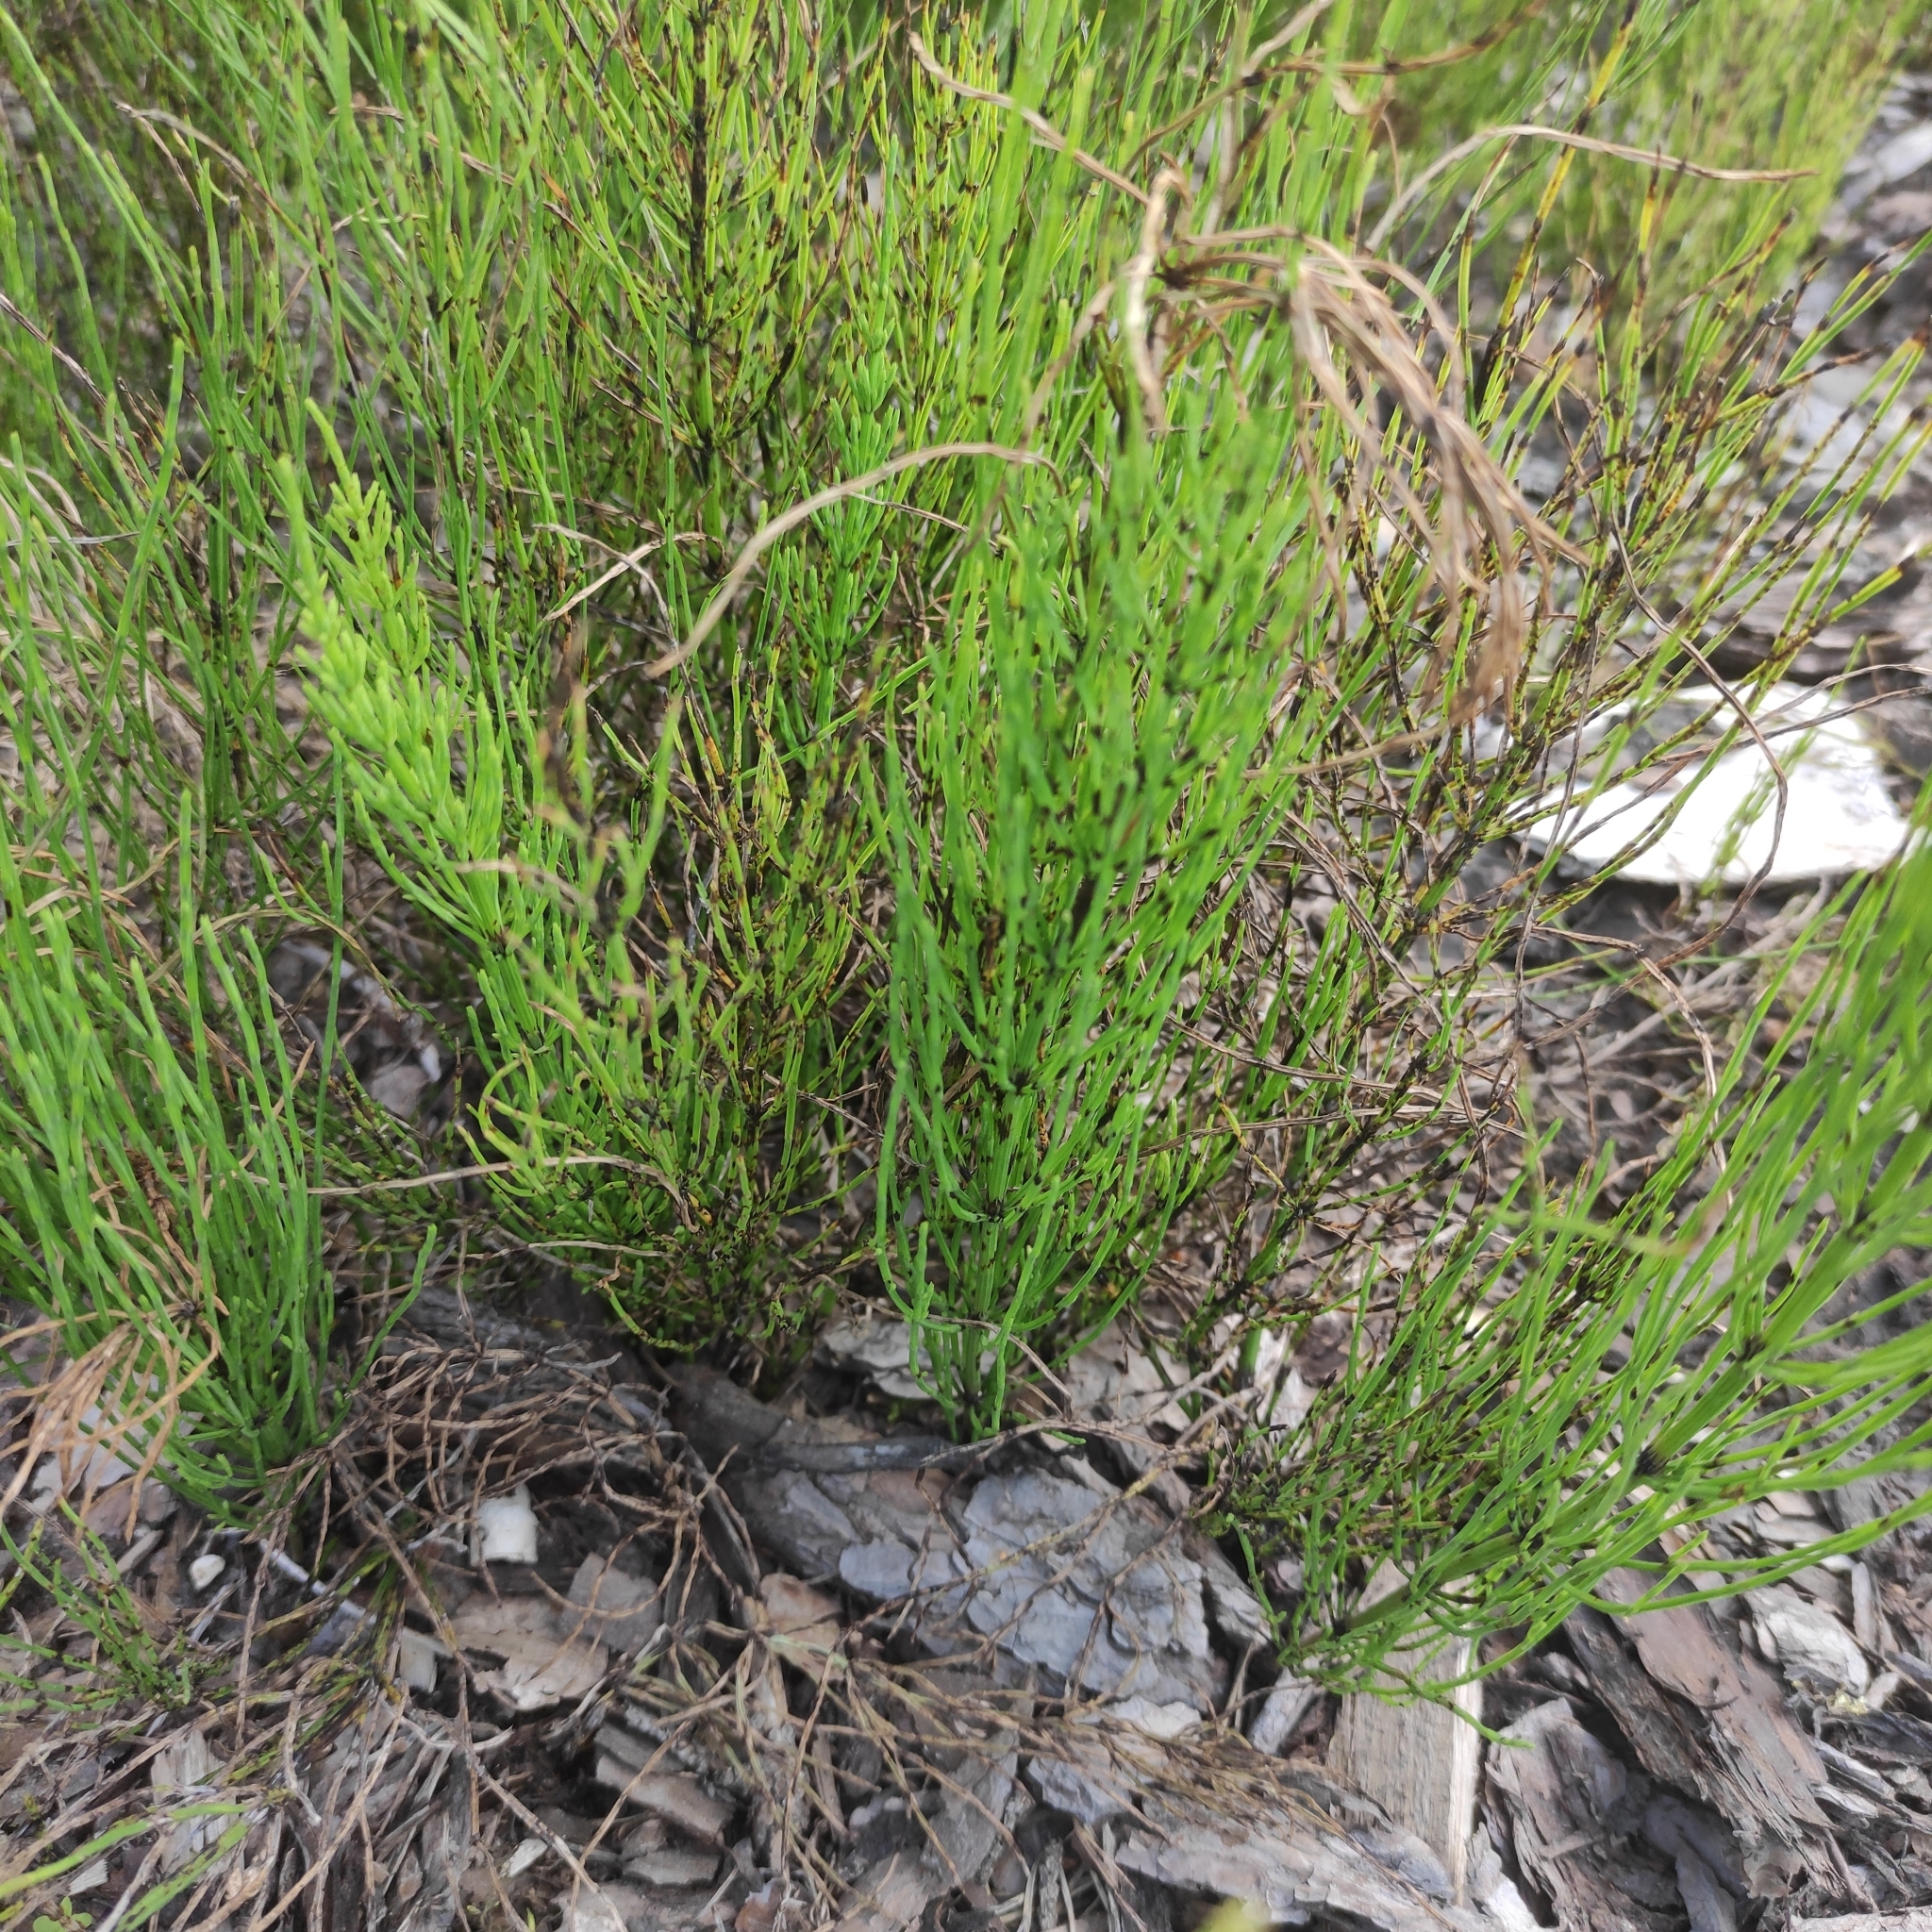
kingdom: Plantae
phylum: Tracheophyta
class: Polypodiopsida
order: Equisetales
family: Equisetaceae
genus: Equisetum
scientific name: Equisetum arvense
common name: Field horsetail
